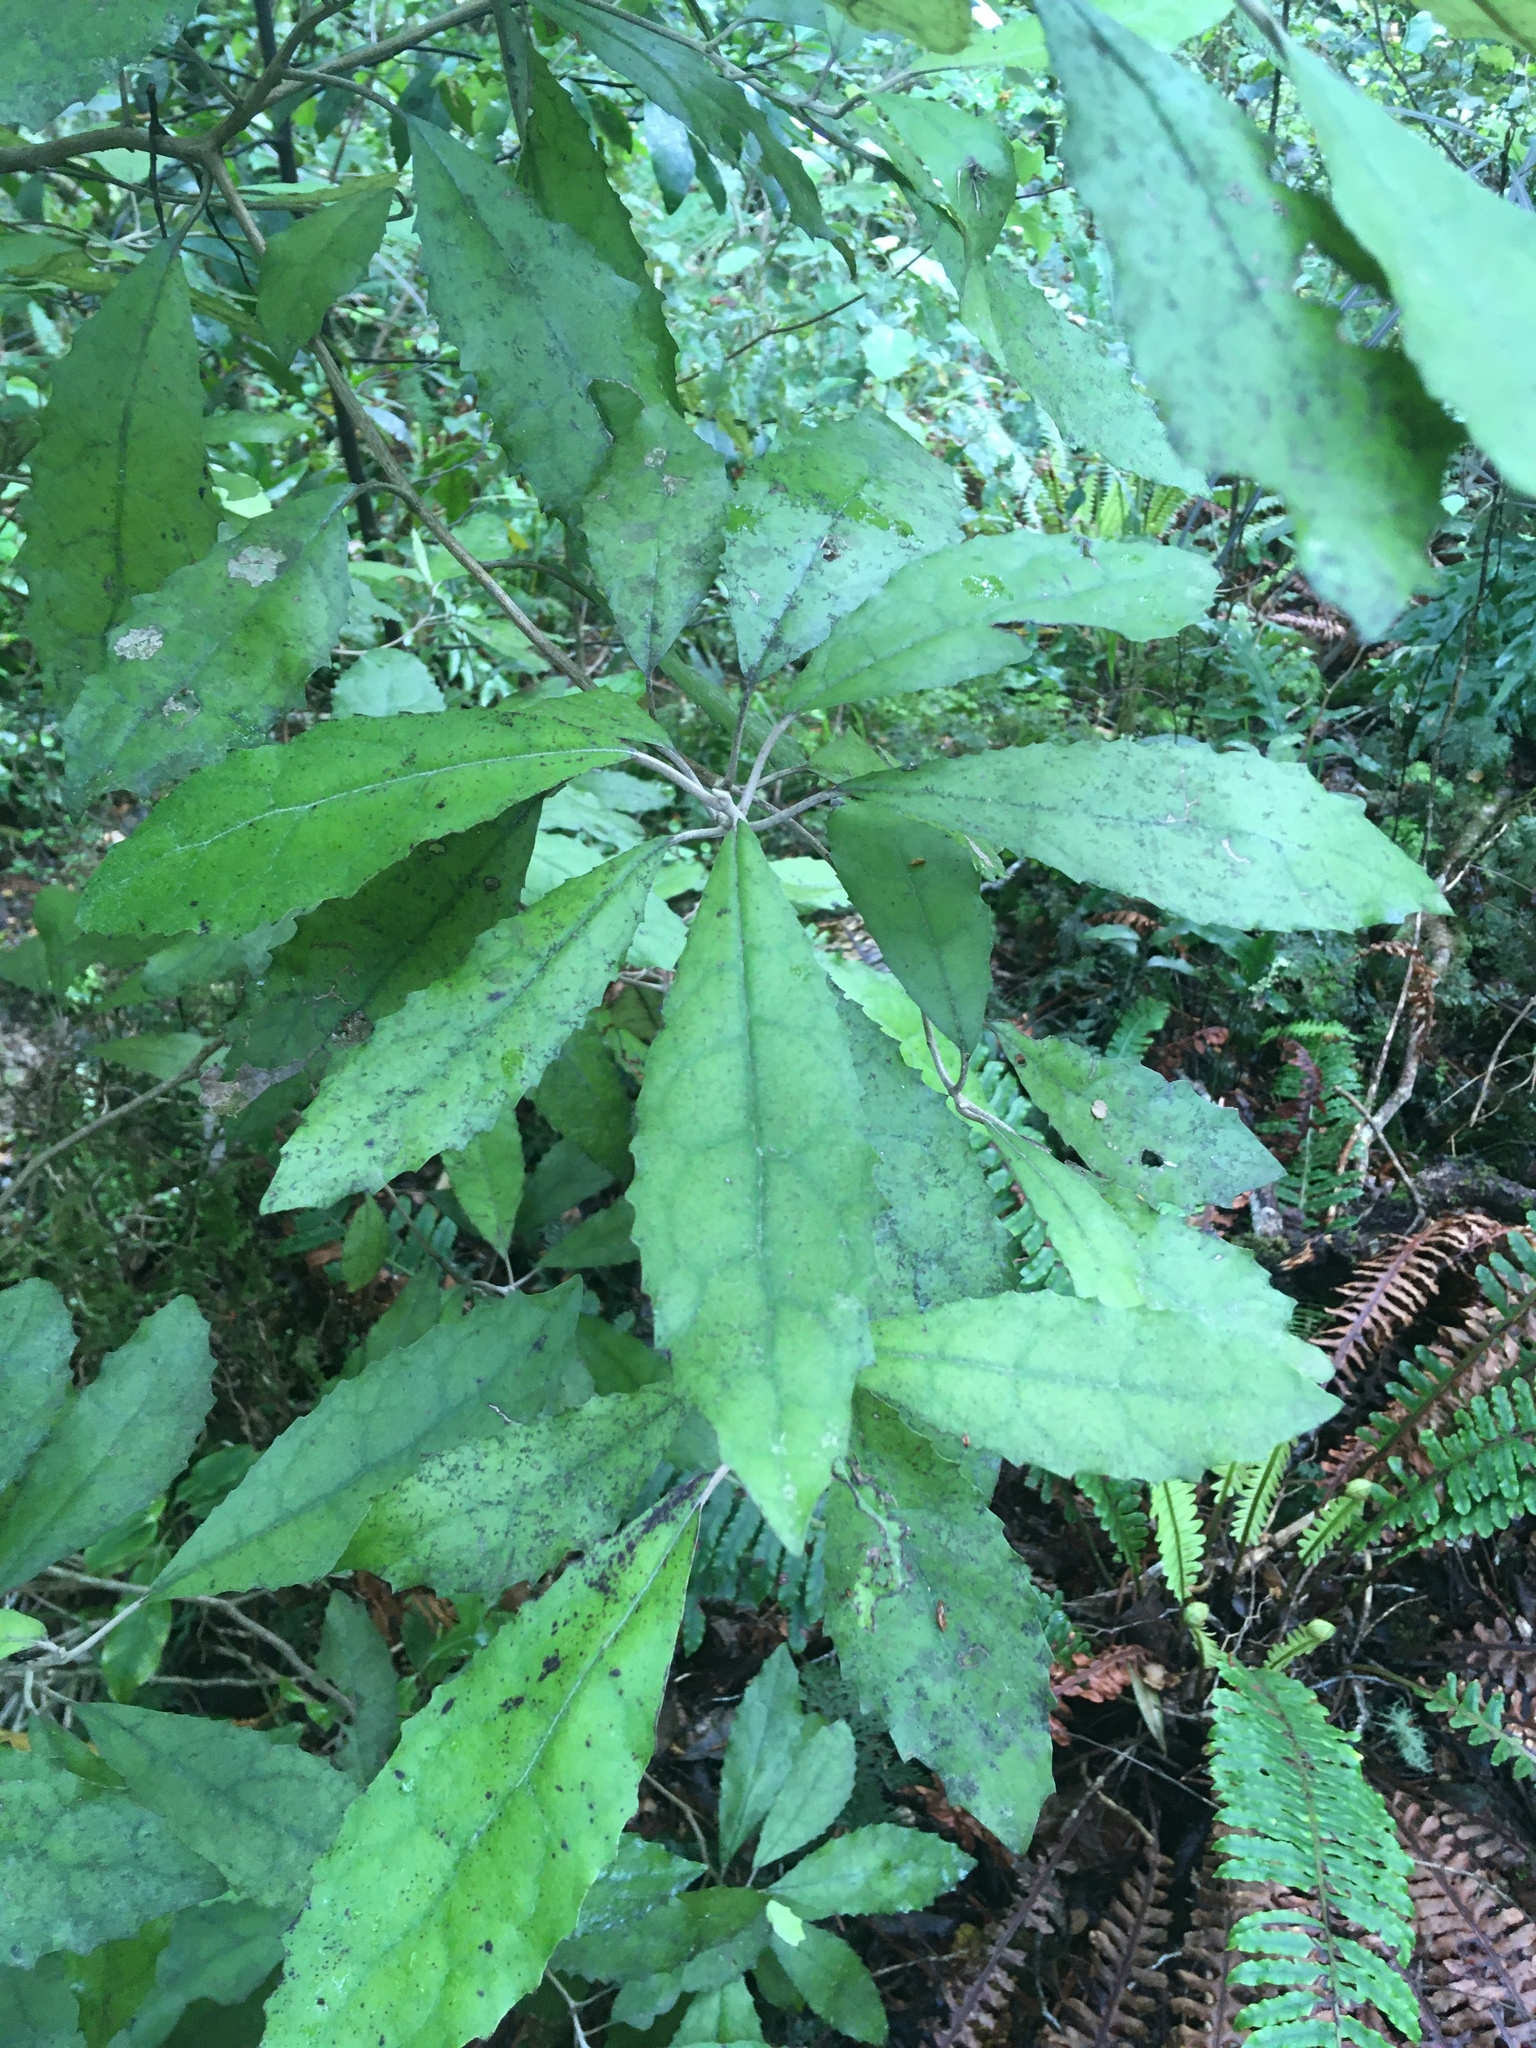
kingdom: Plantae
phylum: Tracheophyta
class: Magnoliopsida
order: Asterales
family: Asteraceae
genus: Olearia
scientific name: Olearia rani
